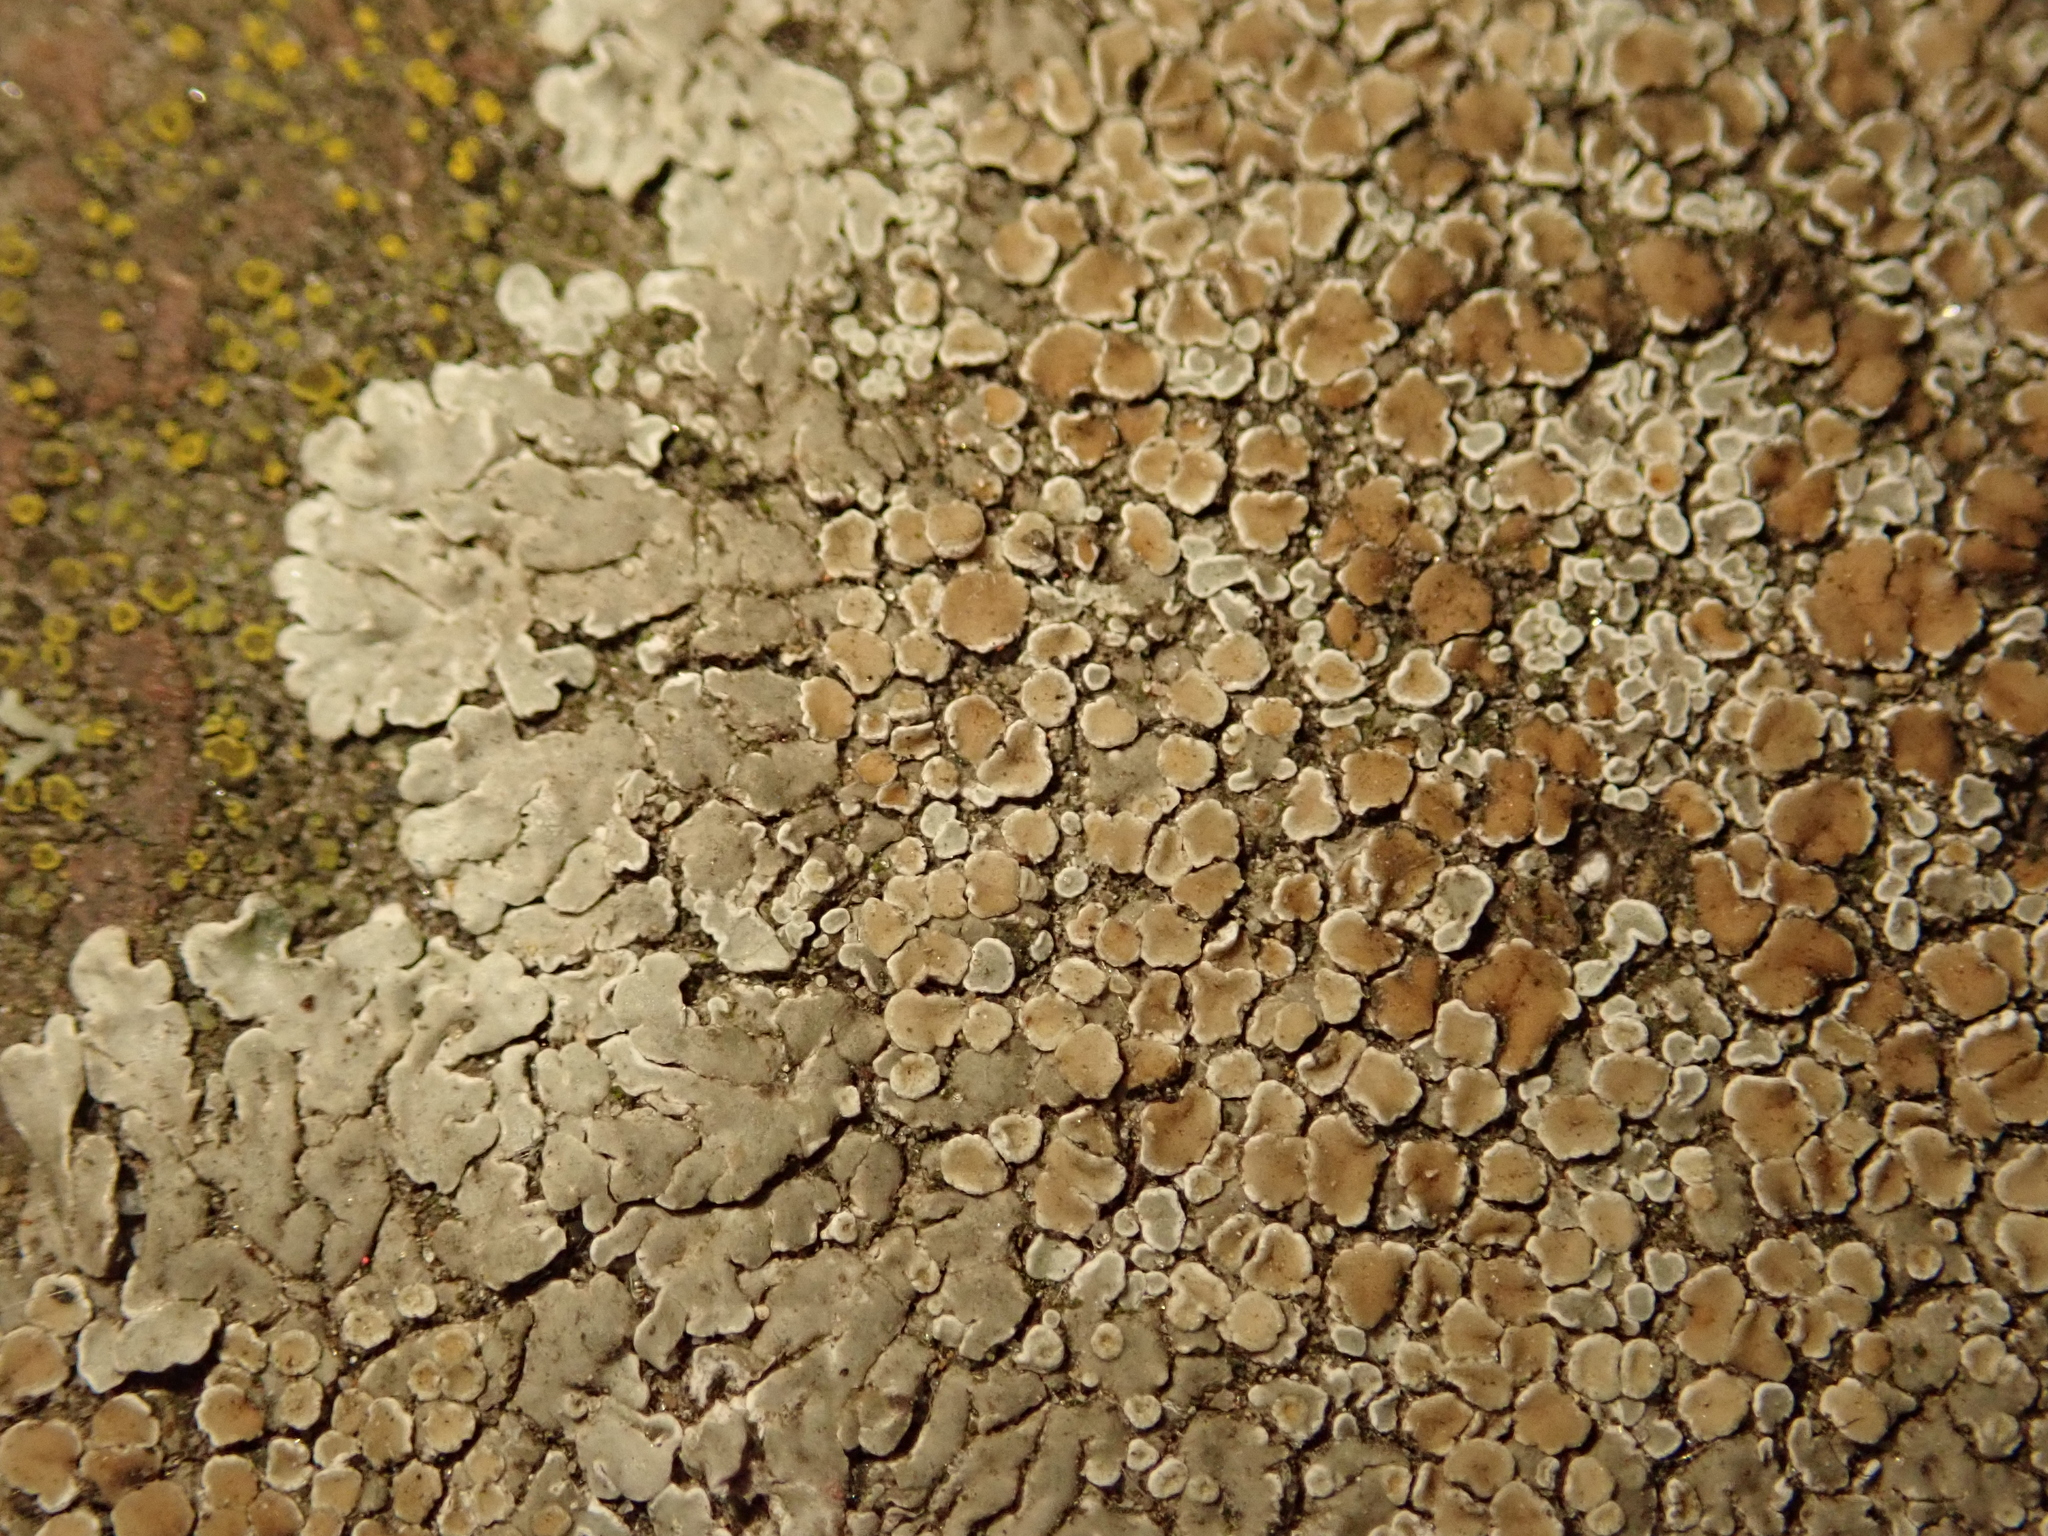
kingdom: Fungi
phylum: Ascomycota
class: Lecanoromycetes
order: Lecanorales
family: Lecanoraceae
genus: Protoparmeliopsis
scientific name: Protoparmeliopsis muralis
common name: Stonewall rim lichen
